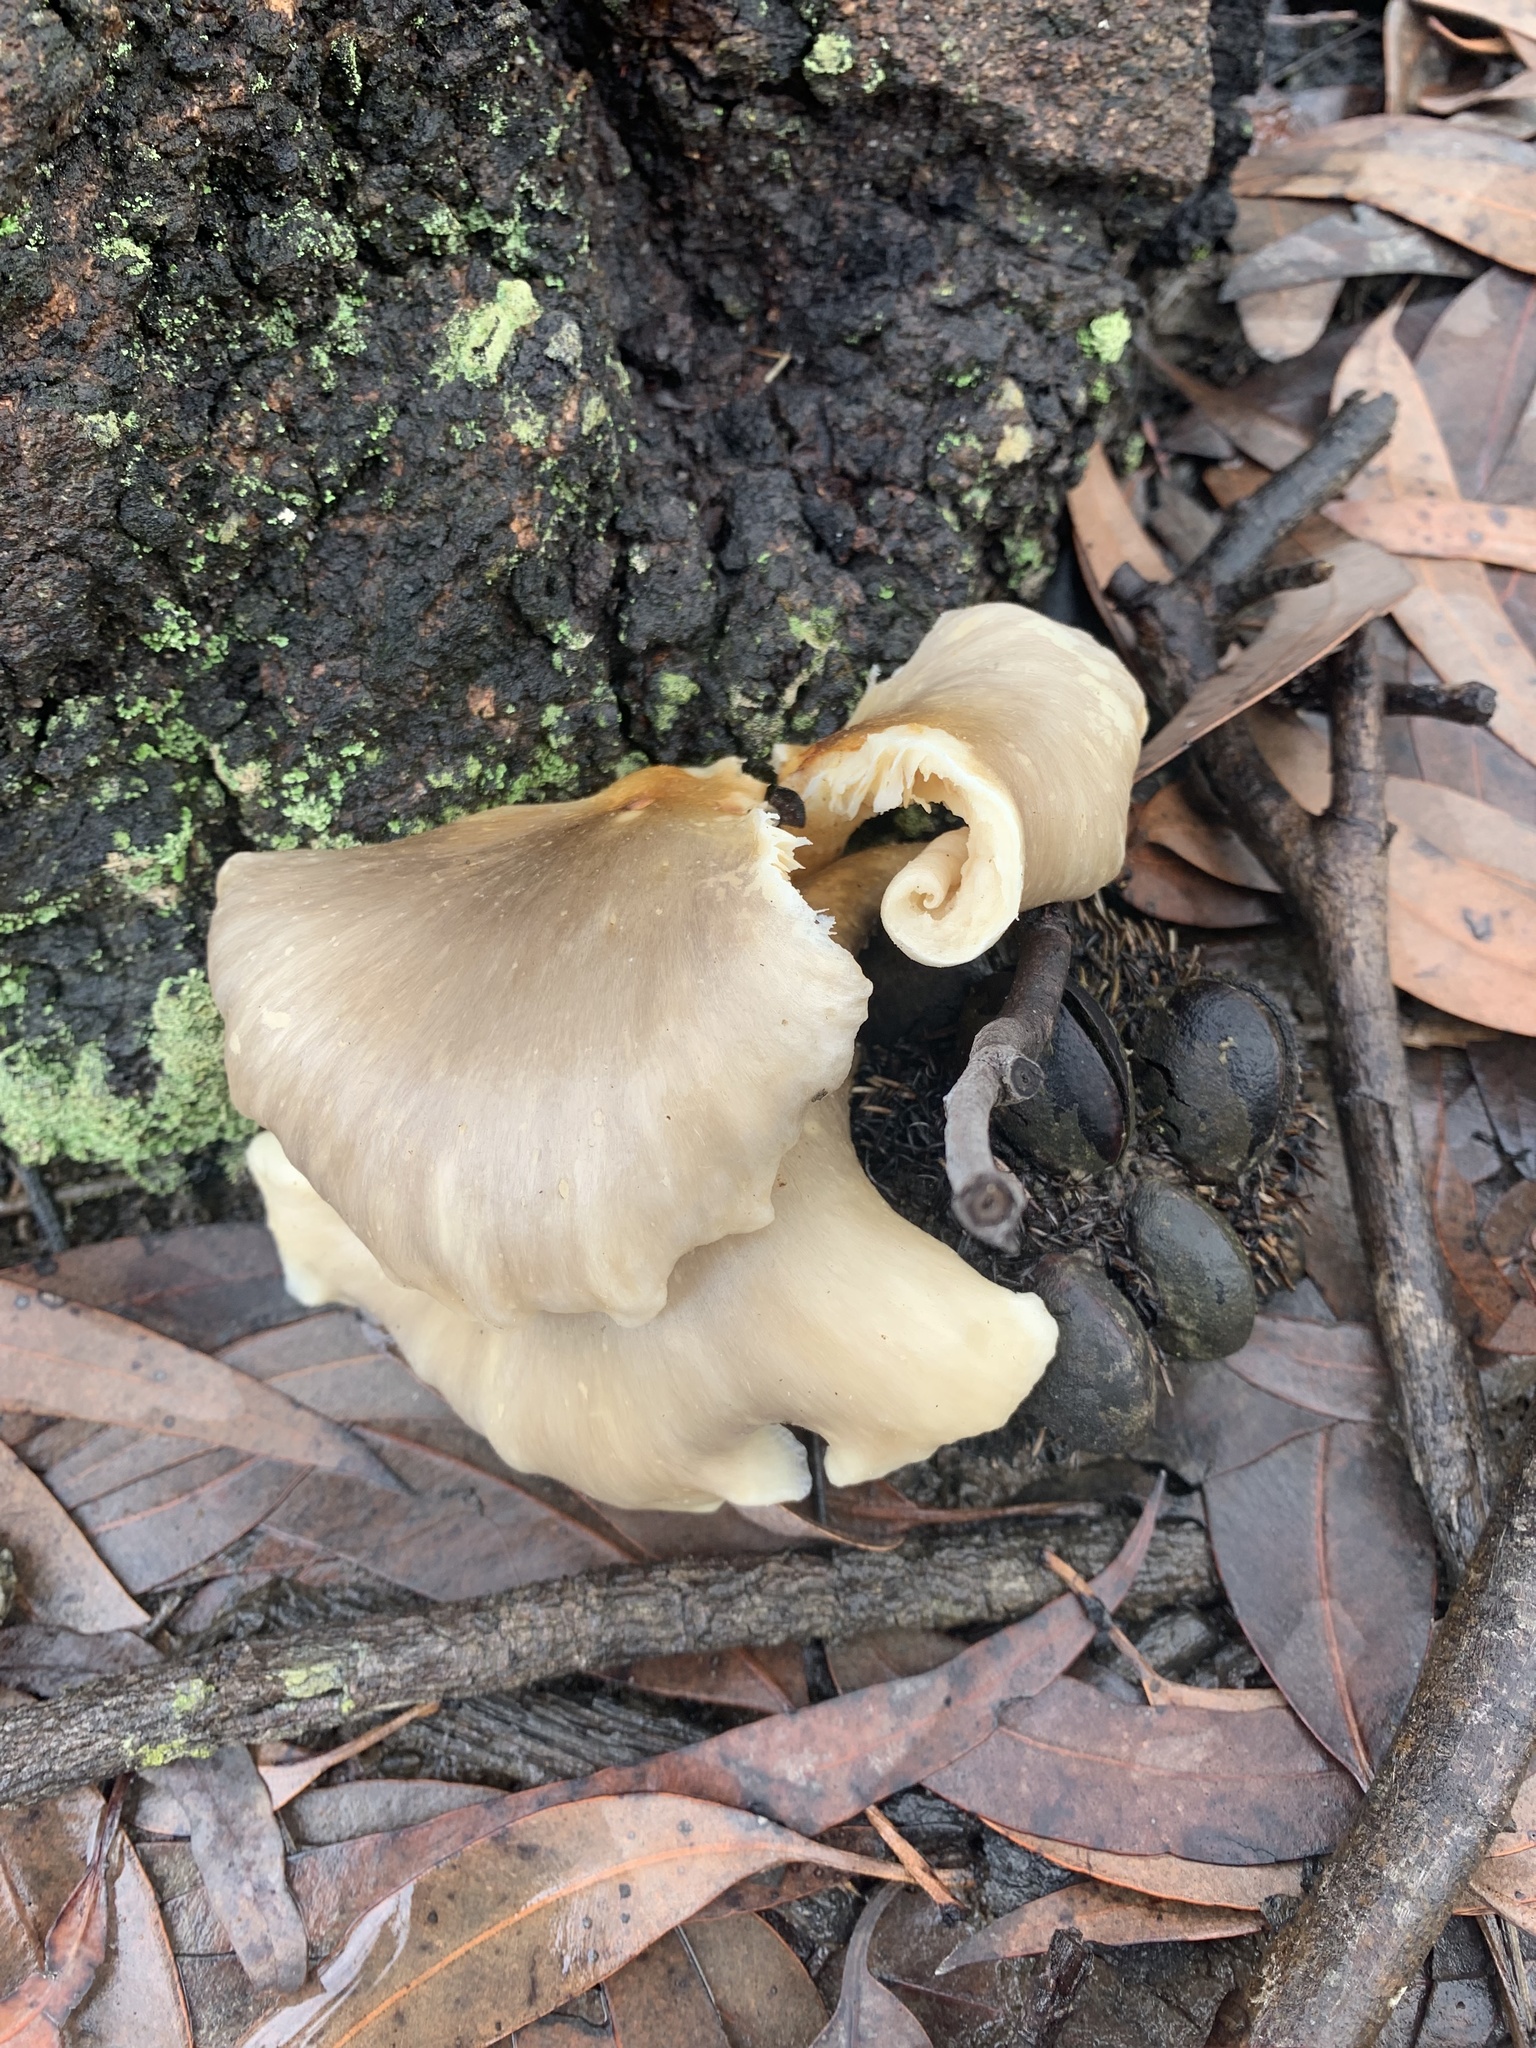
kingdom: Fungi
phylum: Basidiomycota
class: Agaricomycetes
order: Agaricales
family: Omphalotaceae
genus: Omphalotus
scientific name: Omphalotus nidiformis
